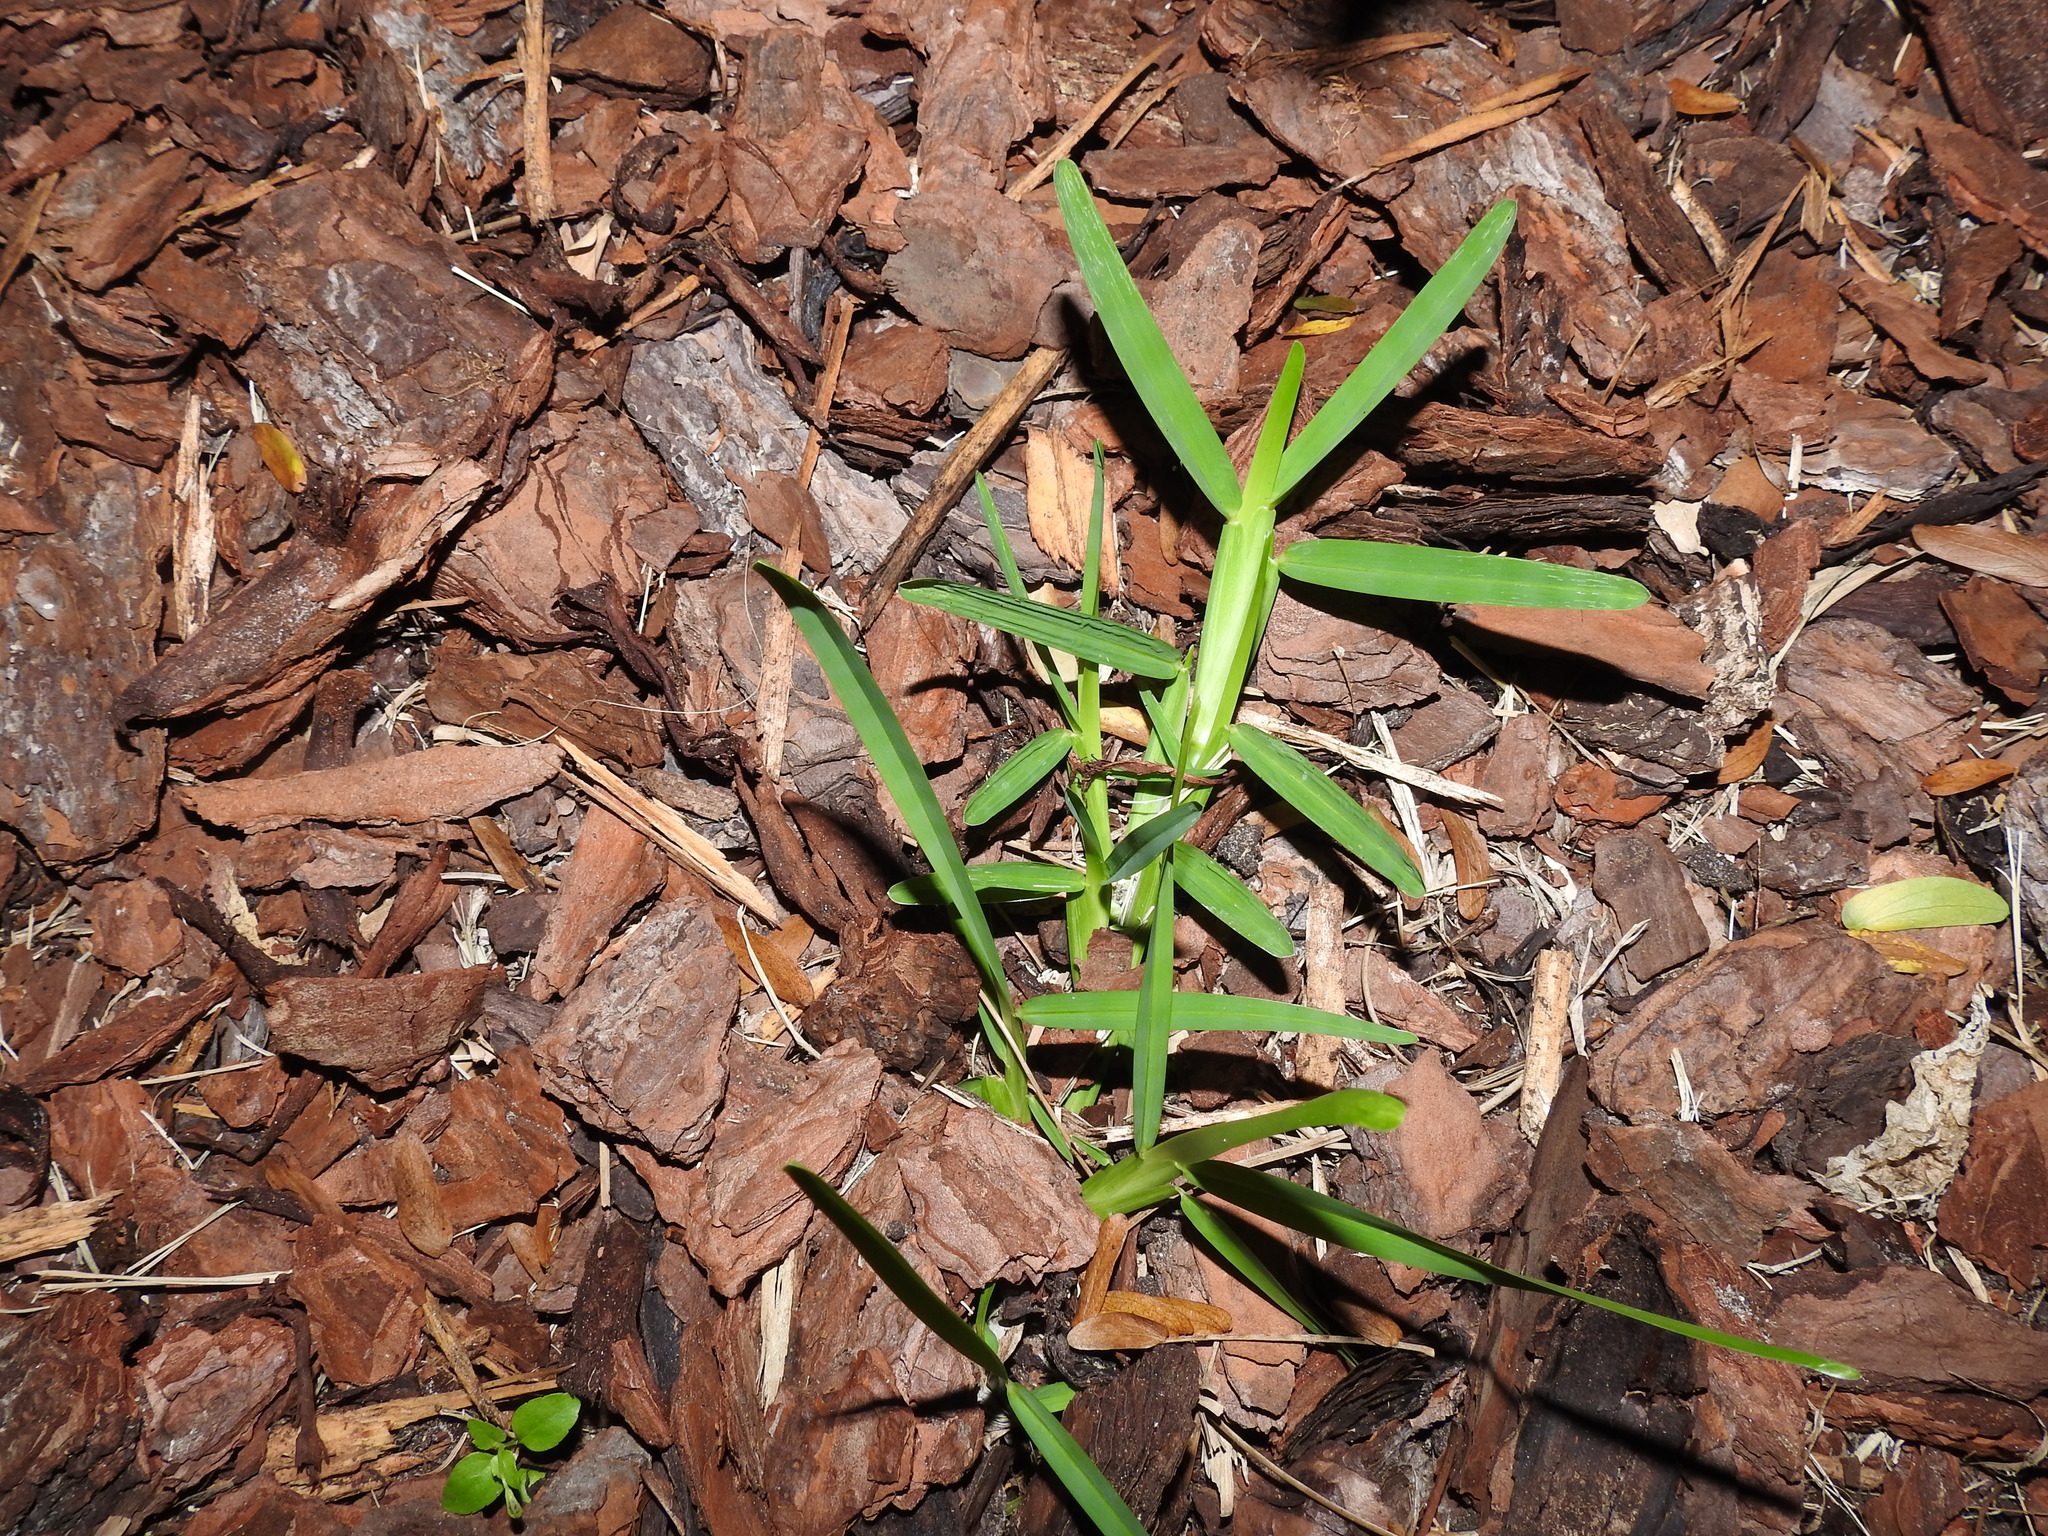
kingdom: Plantae
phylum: Tracheophyta
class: Liliopsida
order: Poales
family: Poaceae
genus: Stenotaphrum
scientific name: Stenotaphrum secundatum
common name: St. augustine grass
